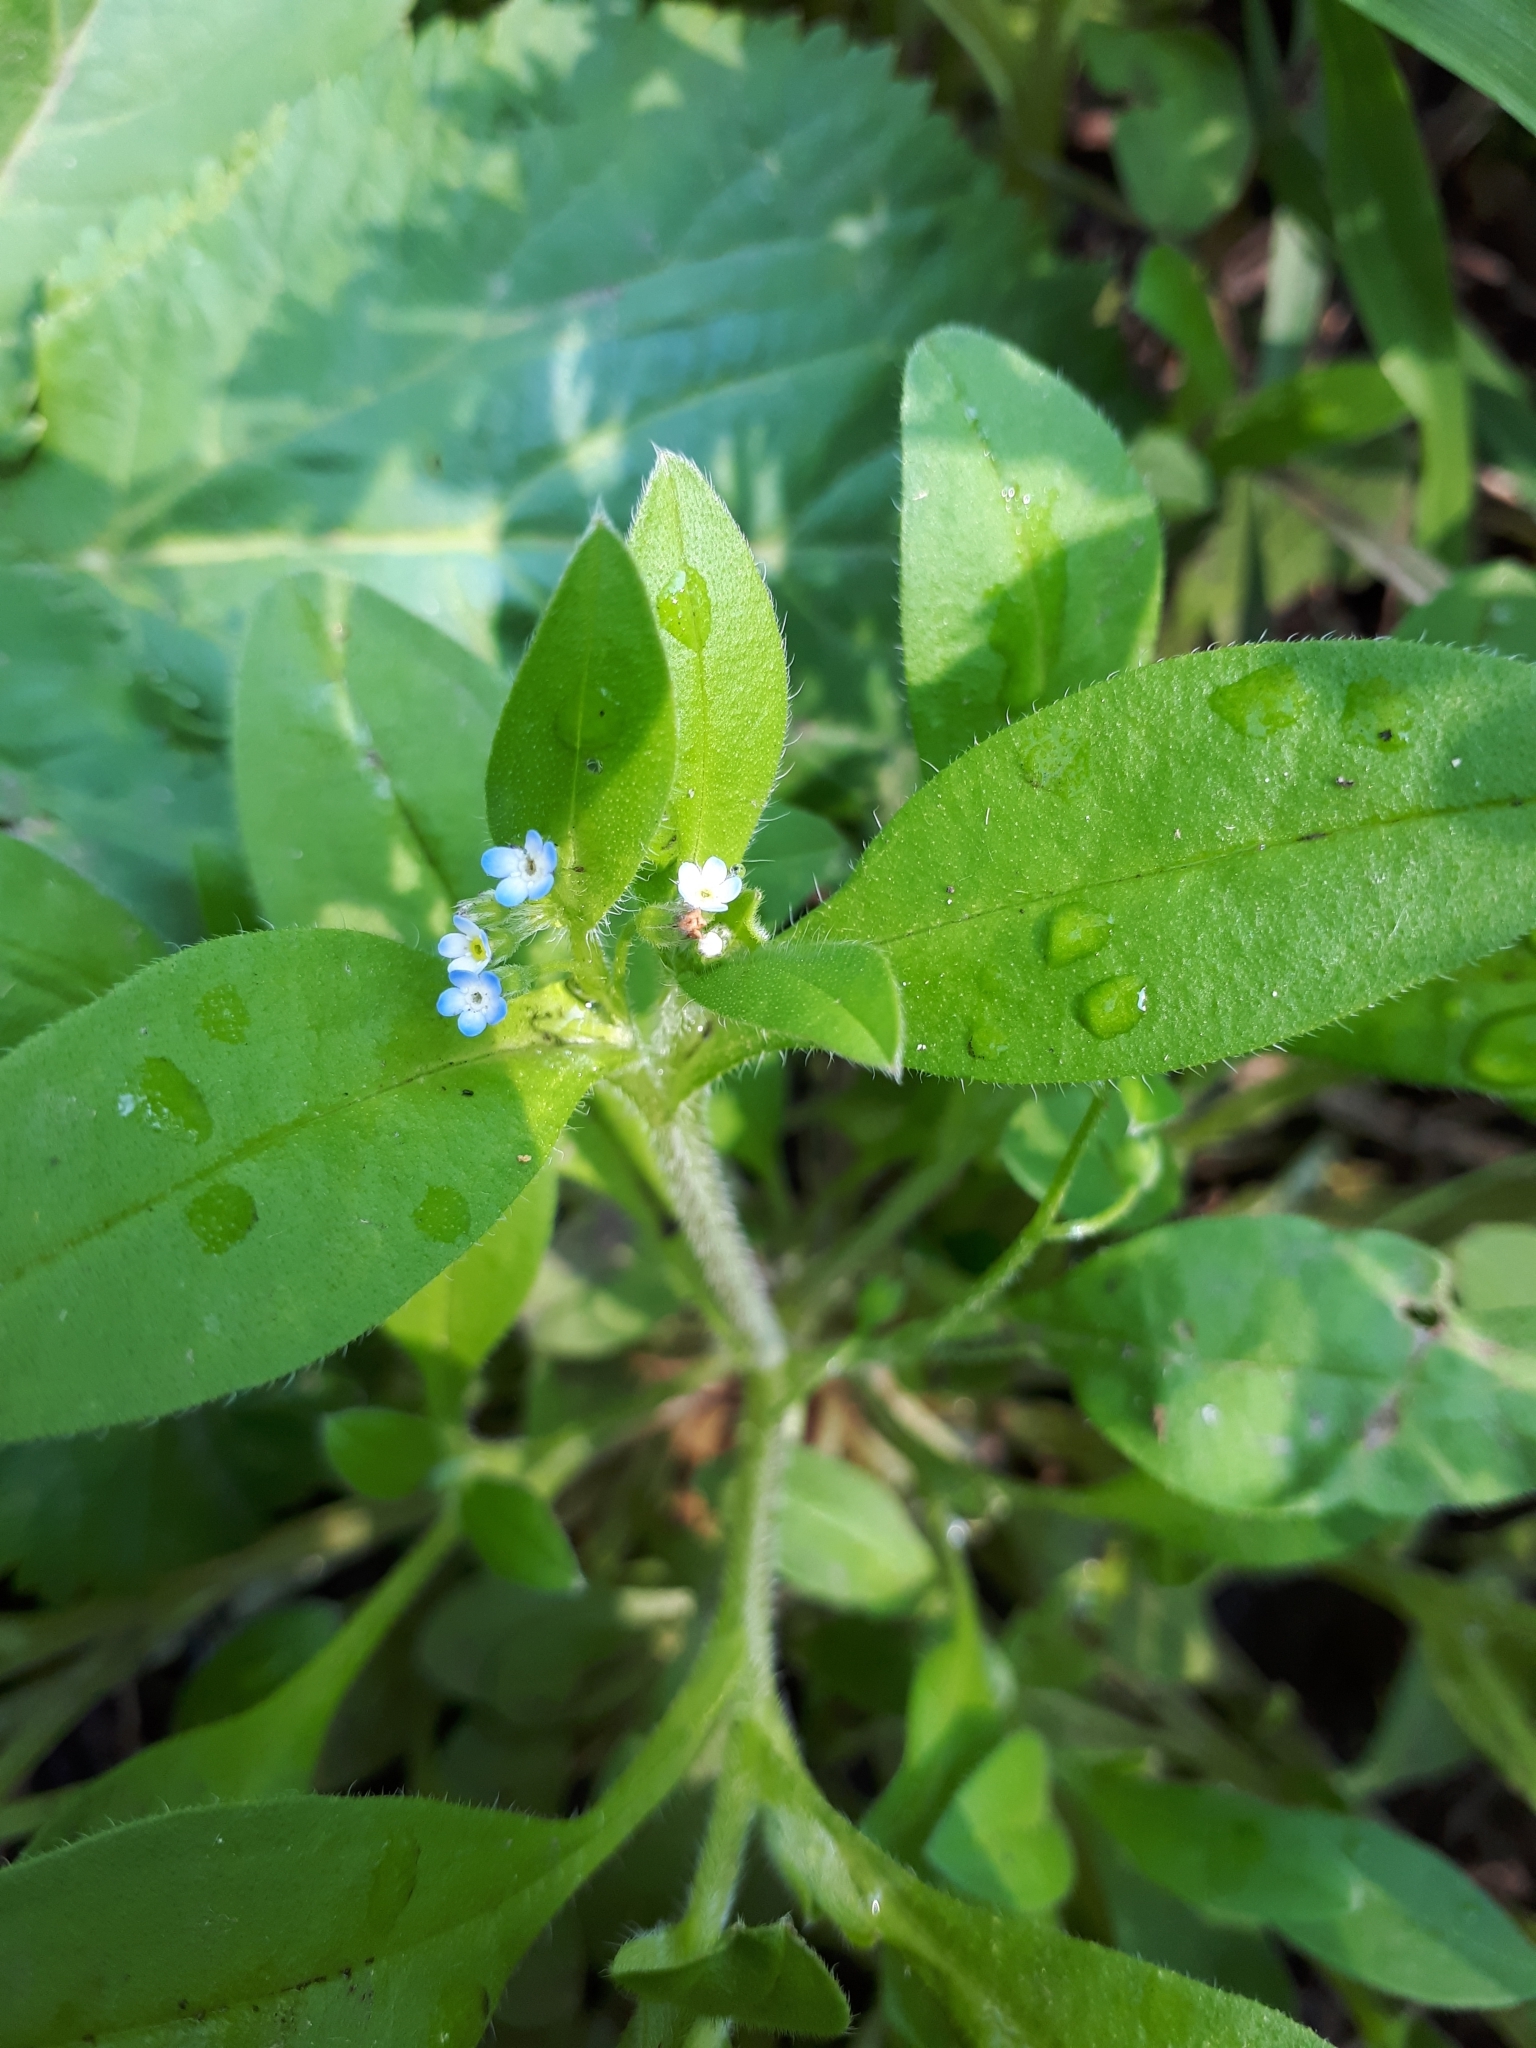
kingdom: Plantae
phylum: Tracheophyta
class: Magnoliopsida
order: Boraginales
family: Boraginaceae
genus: Myosotis
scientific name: Myosotis sparsiflora
